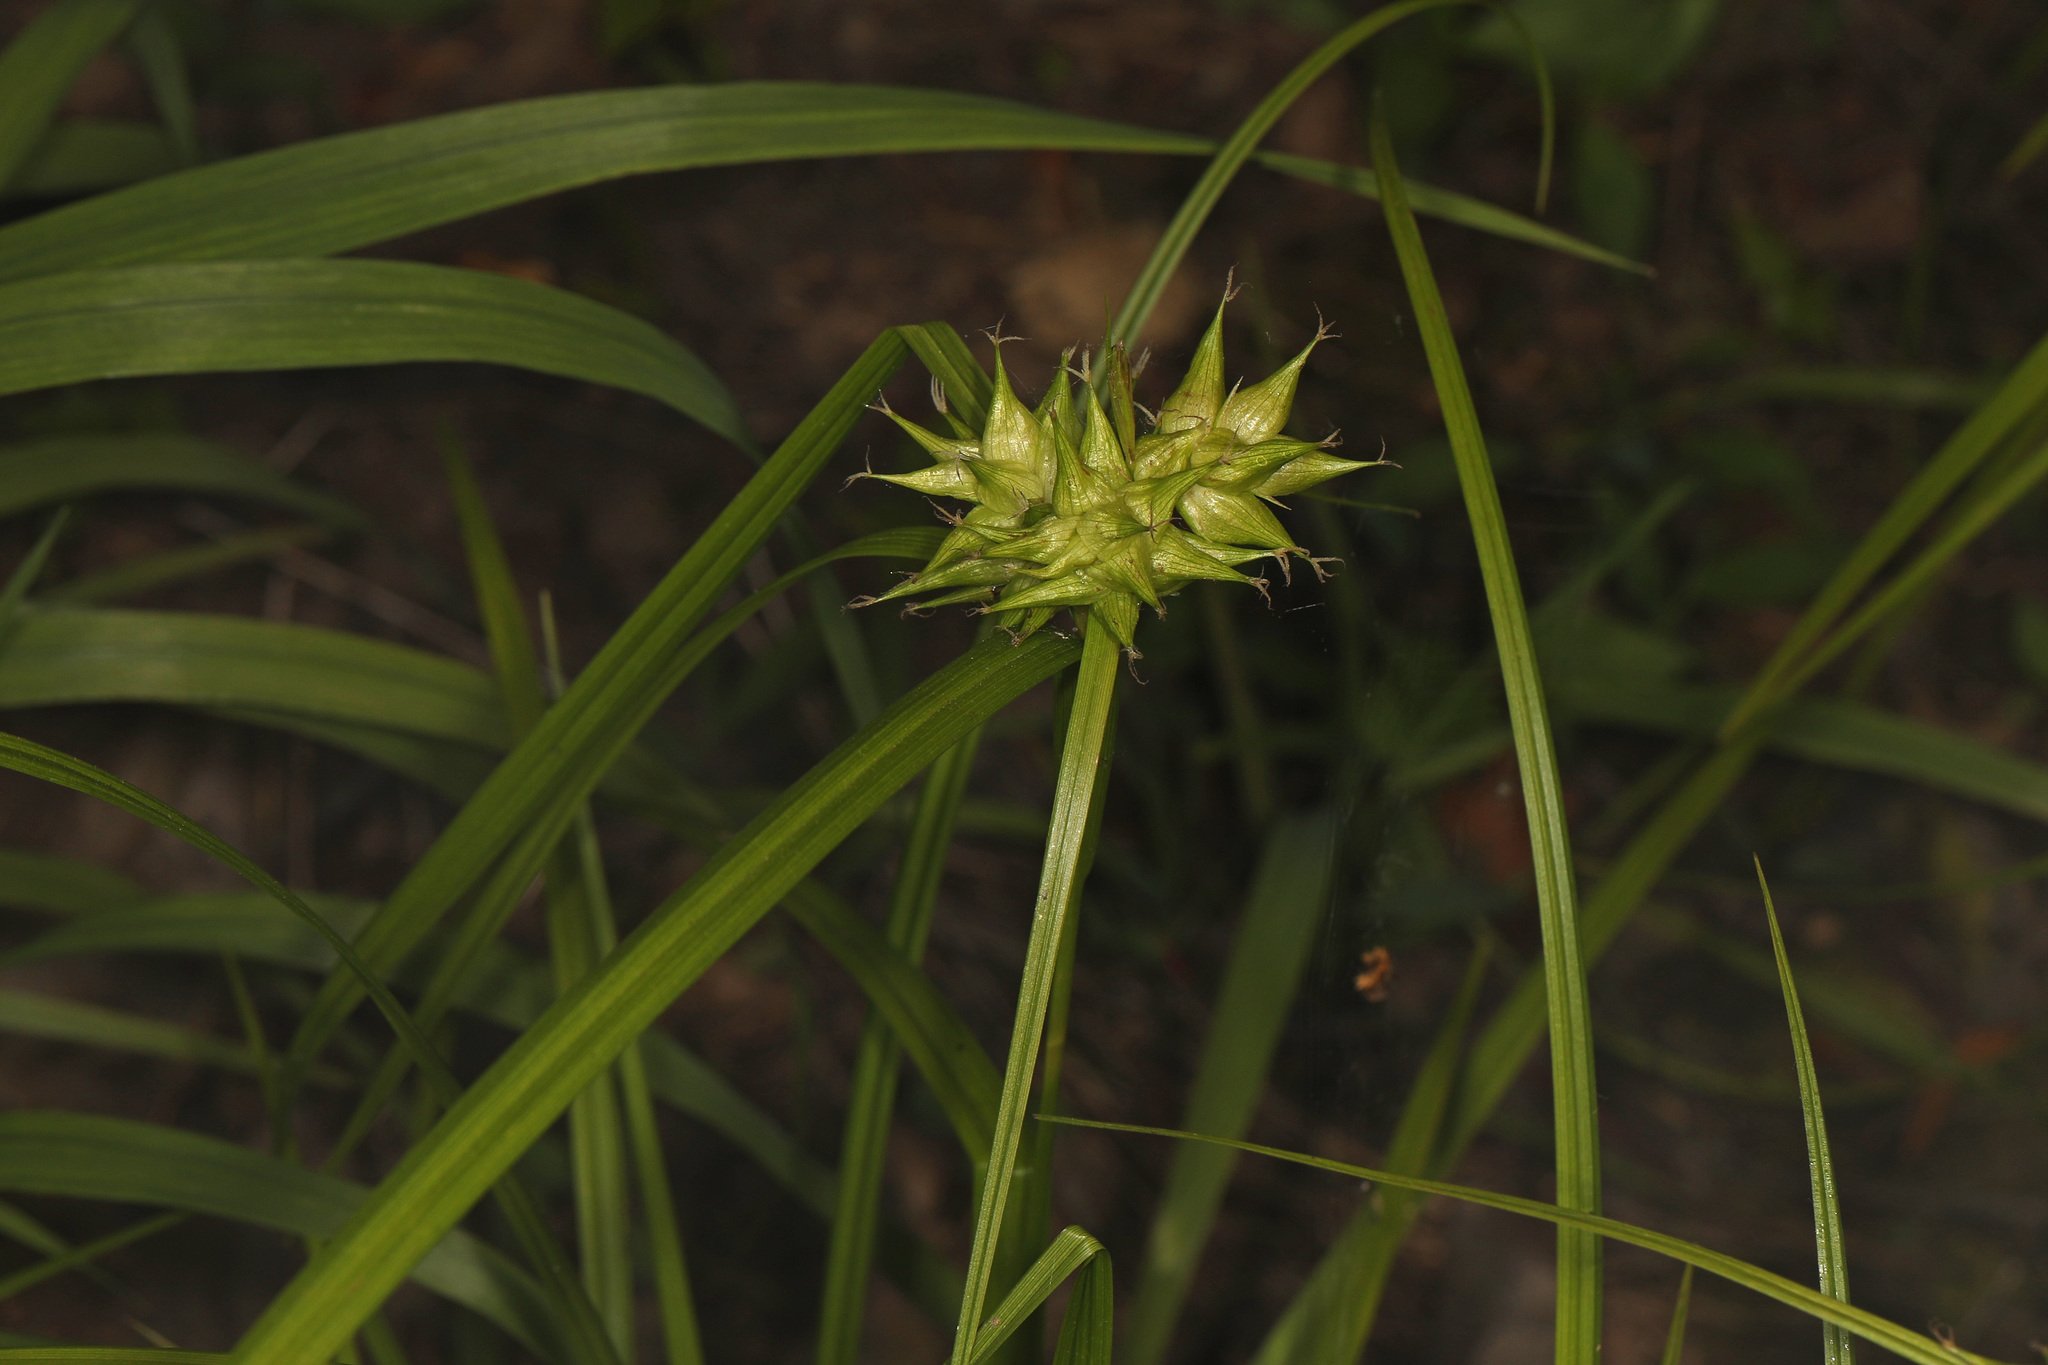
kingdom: Plantae
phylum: Tracheophyta
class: Liliopsida
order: Poales
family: Cyperaceae
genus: Carex
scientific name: Carex intumescens
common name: Greater bladder sedge
